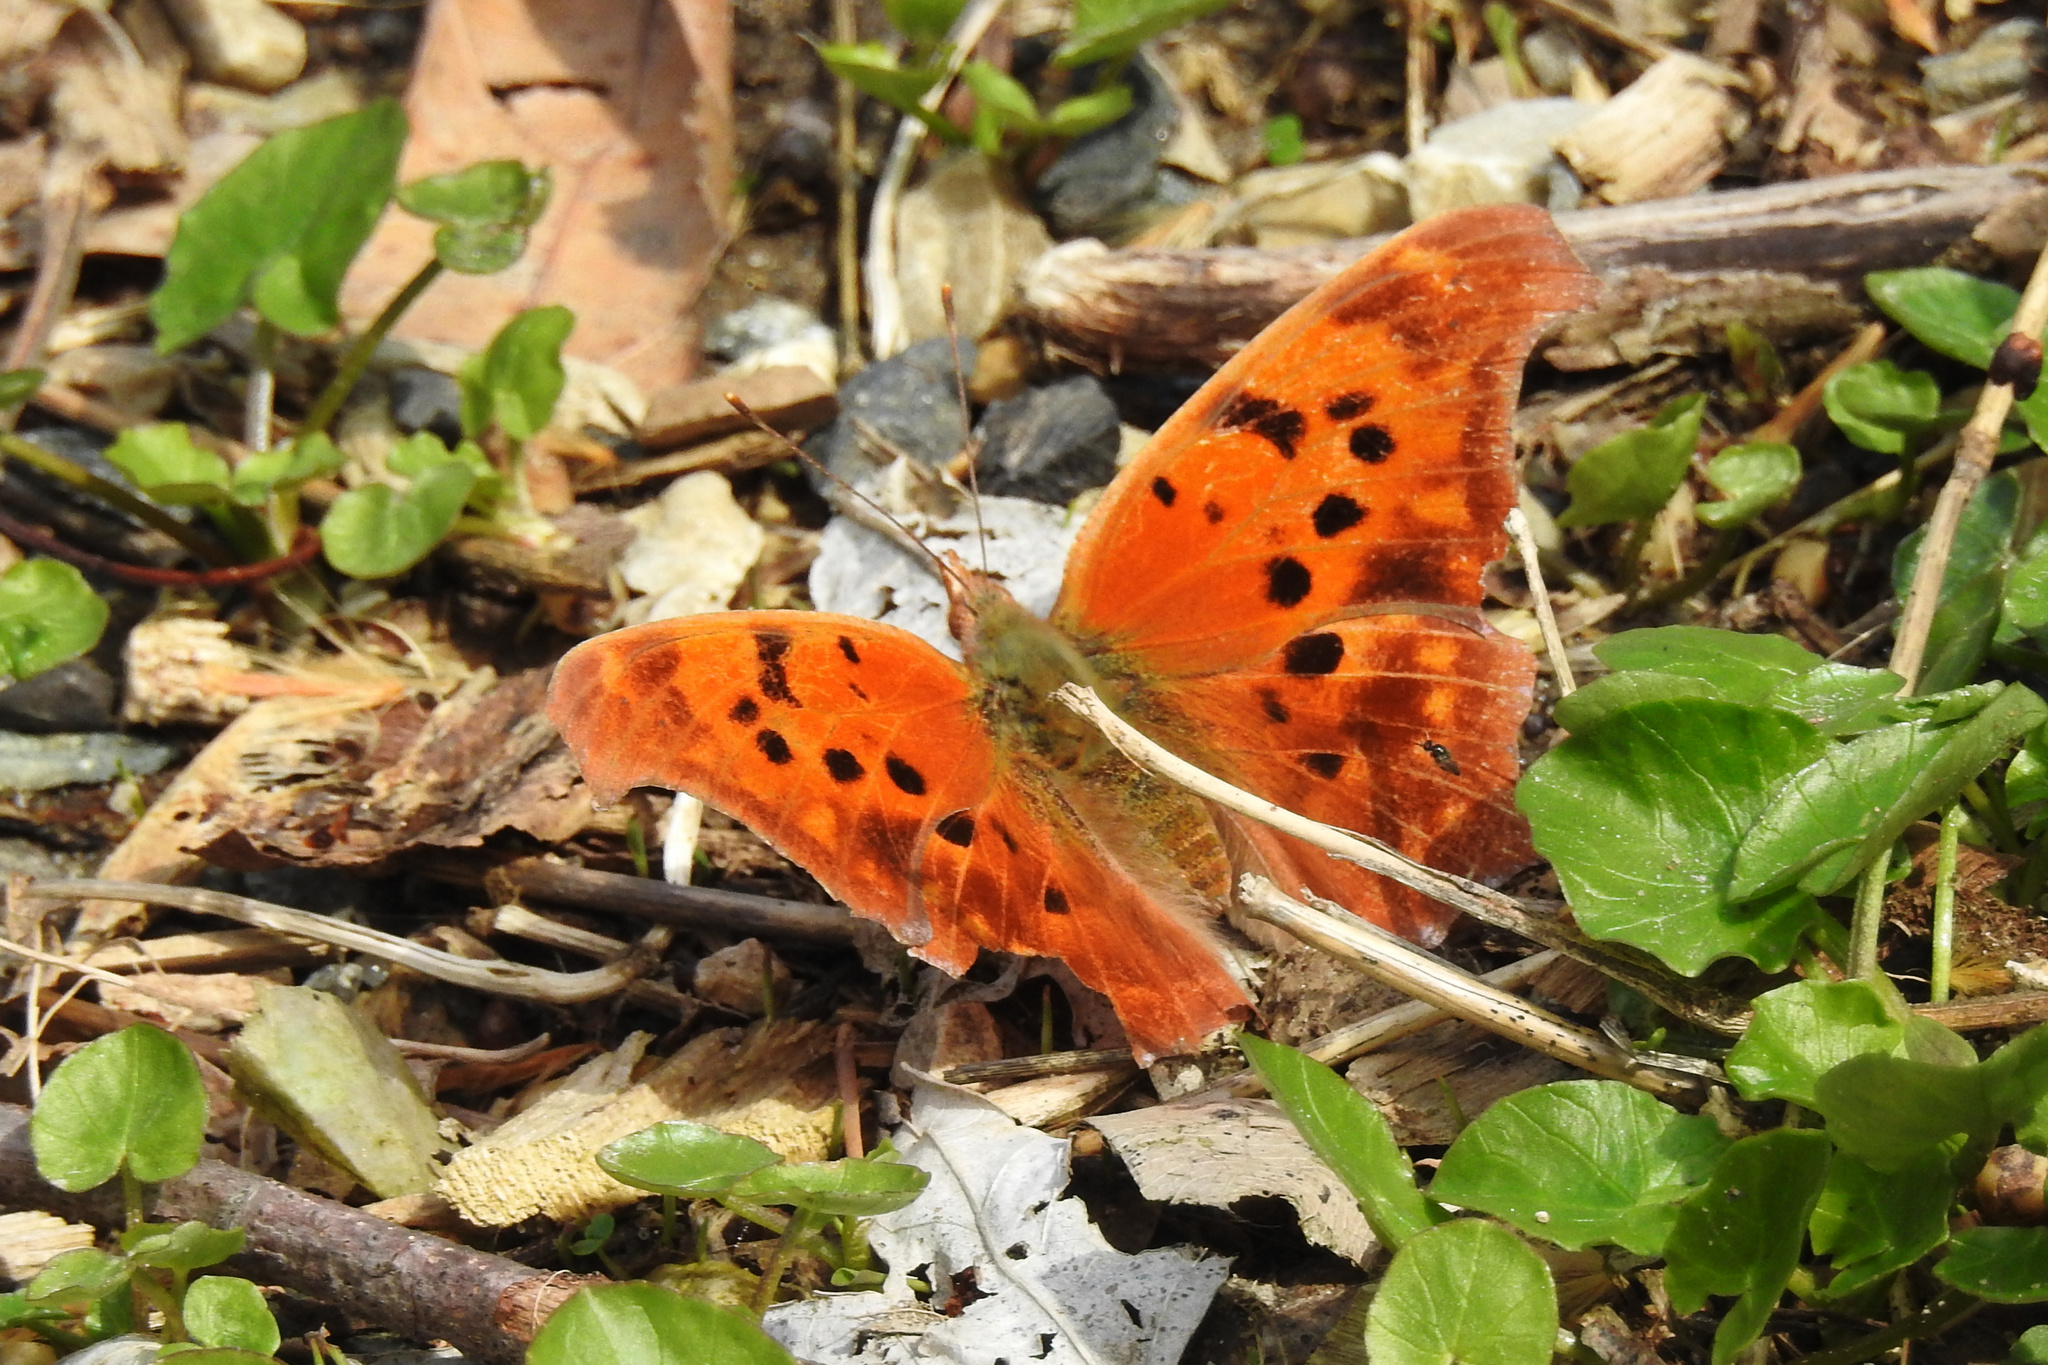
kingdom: Animalia
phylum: Arthropoda
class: Insecta
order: Lepidoptera
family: Nymphalidae
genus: Polygonia
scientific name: Polygonia interrogationis
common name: Question mark
